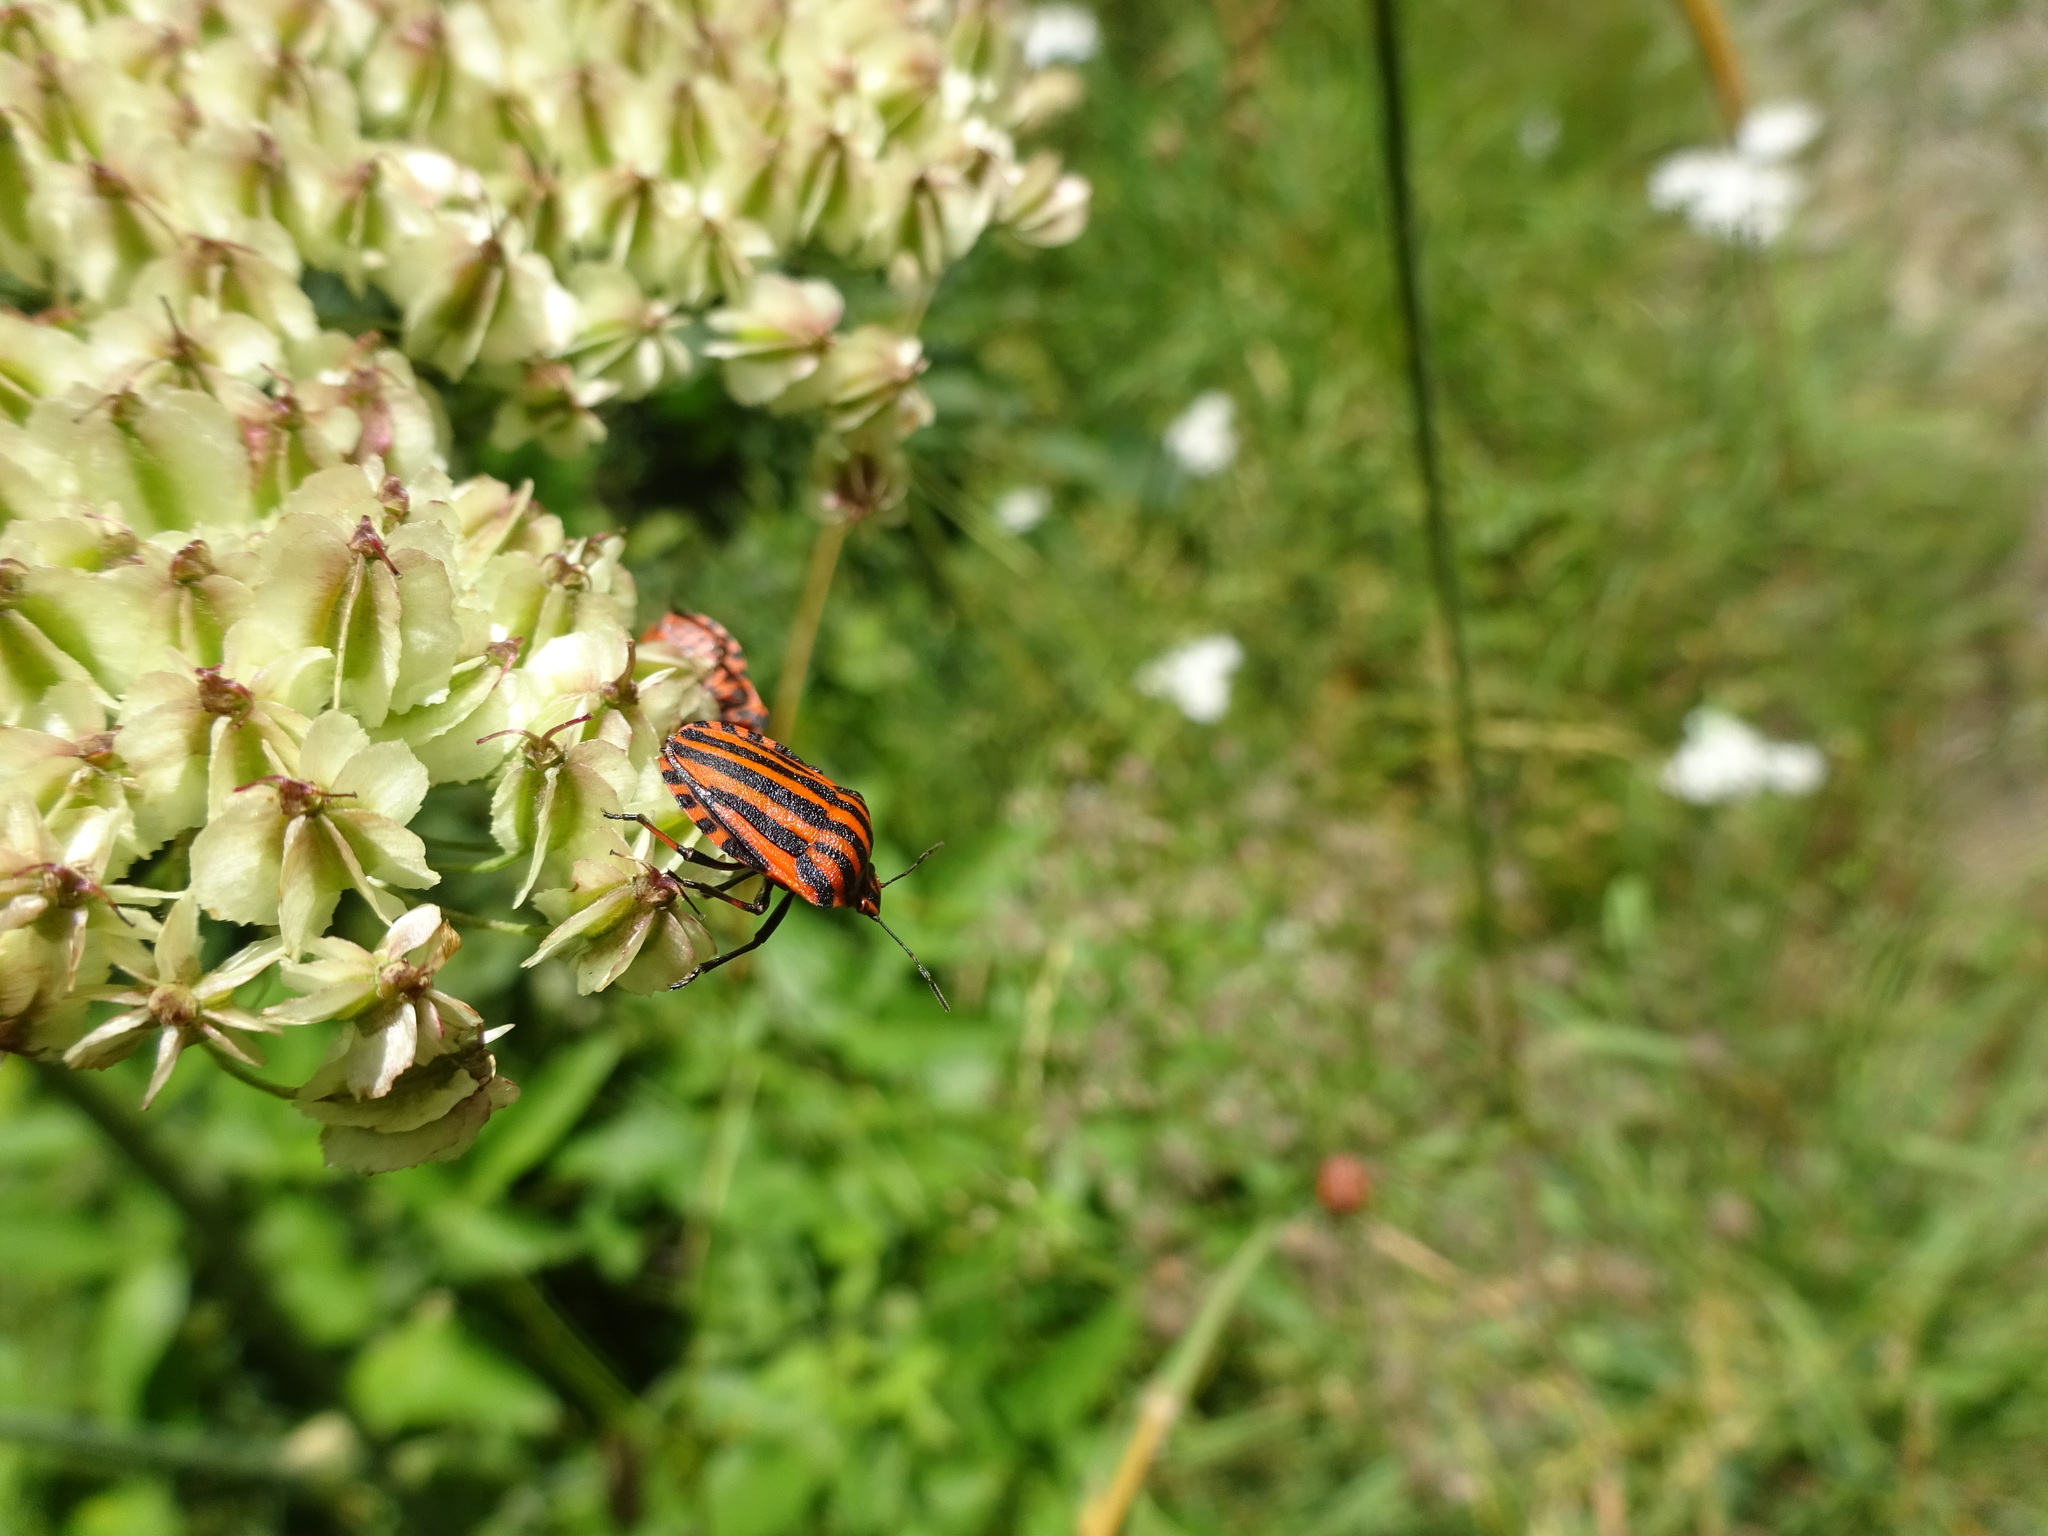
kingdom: Animalia
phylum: Arthropoda
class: Insecta
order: Hemiptera
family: Pentatomidae
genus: Graphosoma
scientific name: Graphosoma italicum
